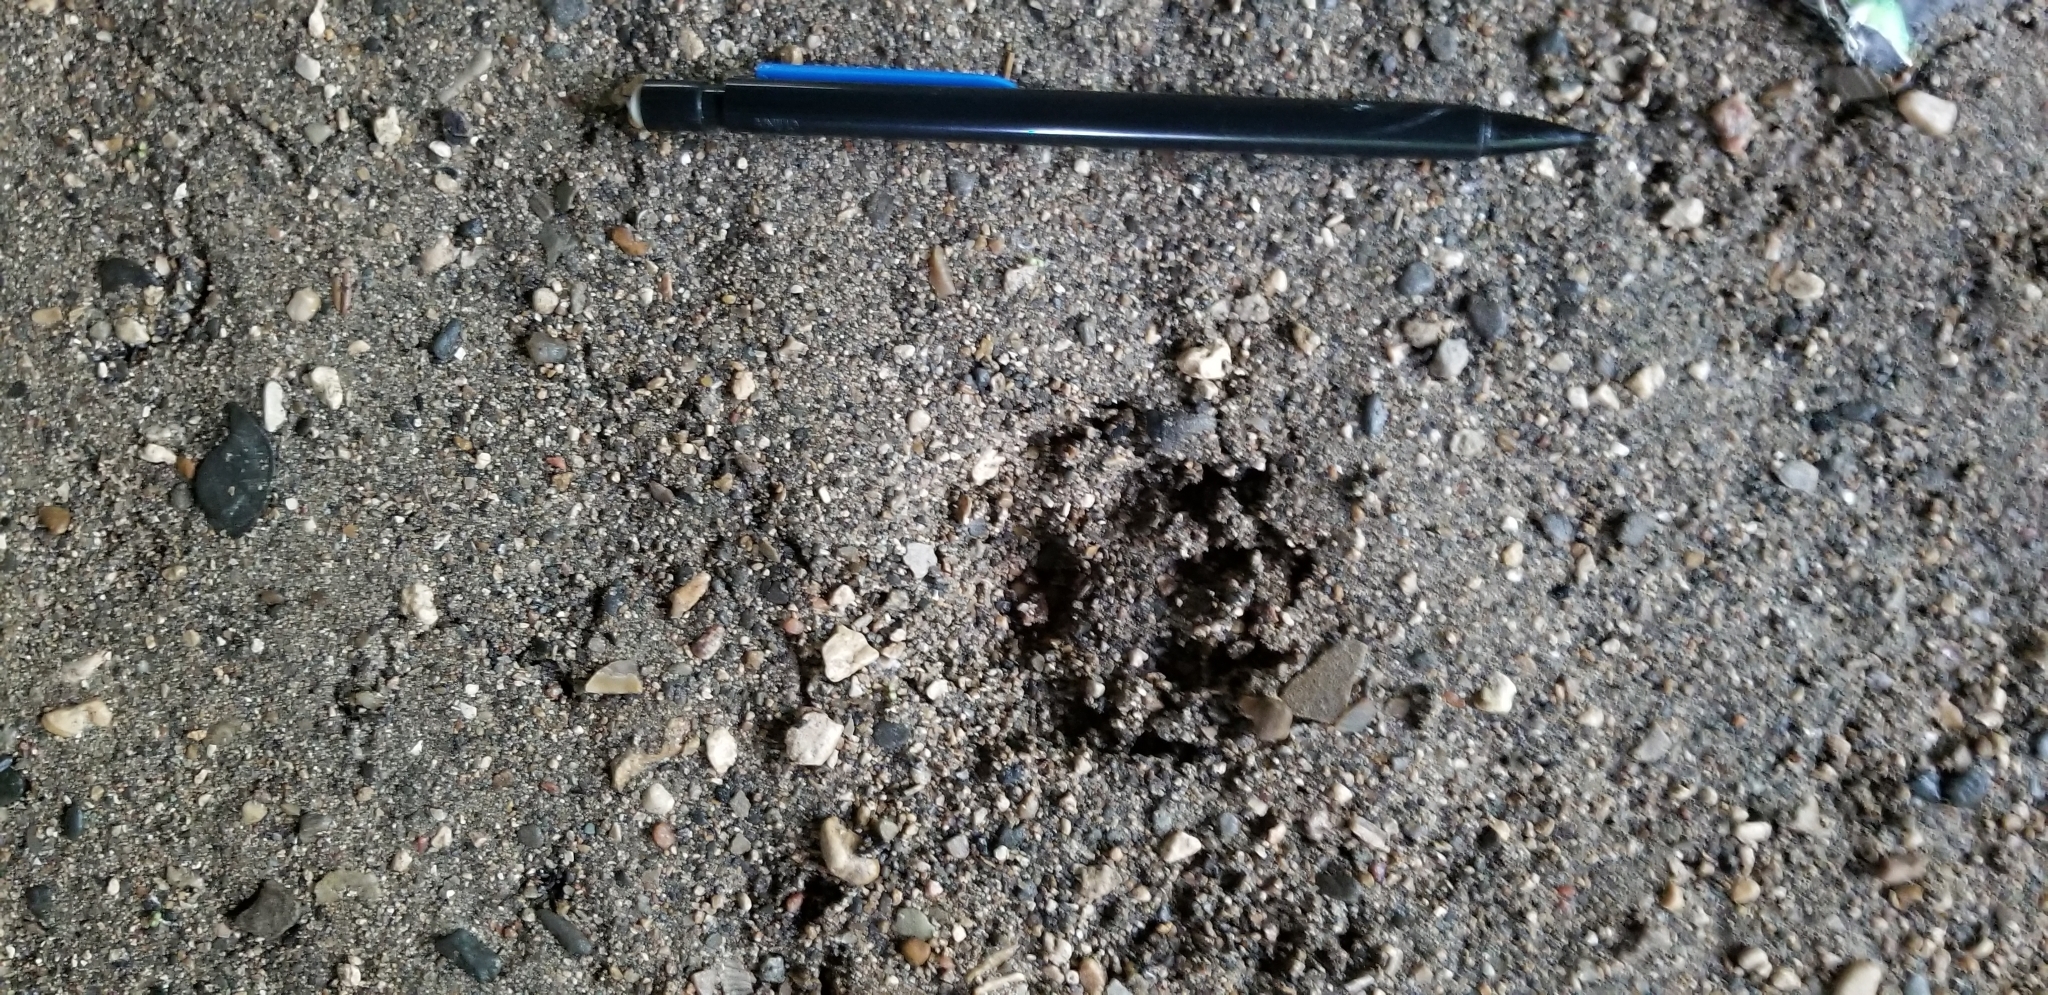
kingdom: Animalia
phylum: Chordata
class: Mammalia
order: Carnivora
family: Mephitidae
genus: Mephitis
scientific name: Mephitis mephitis
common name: Striped skunk
